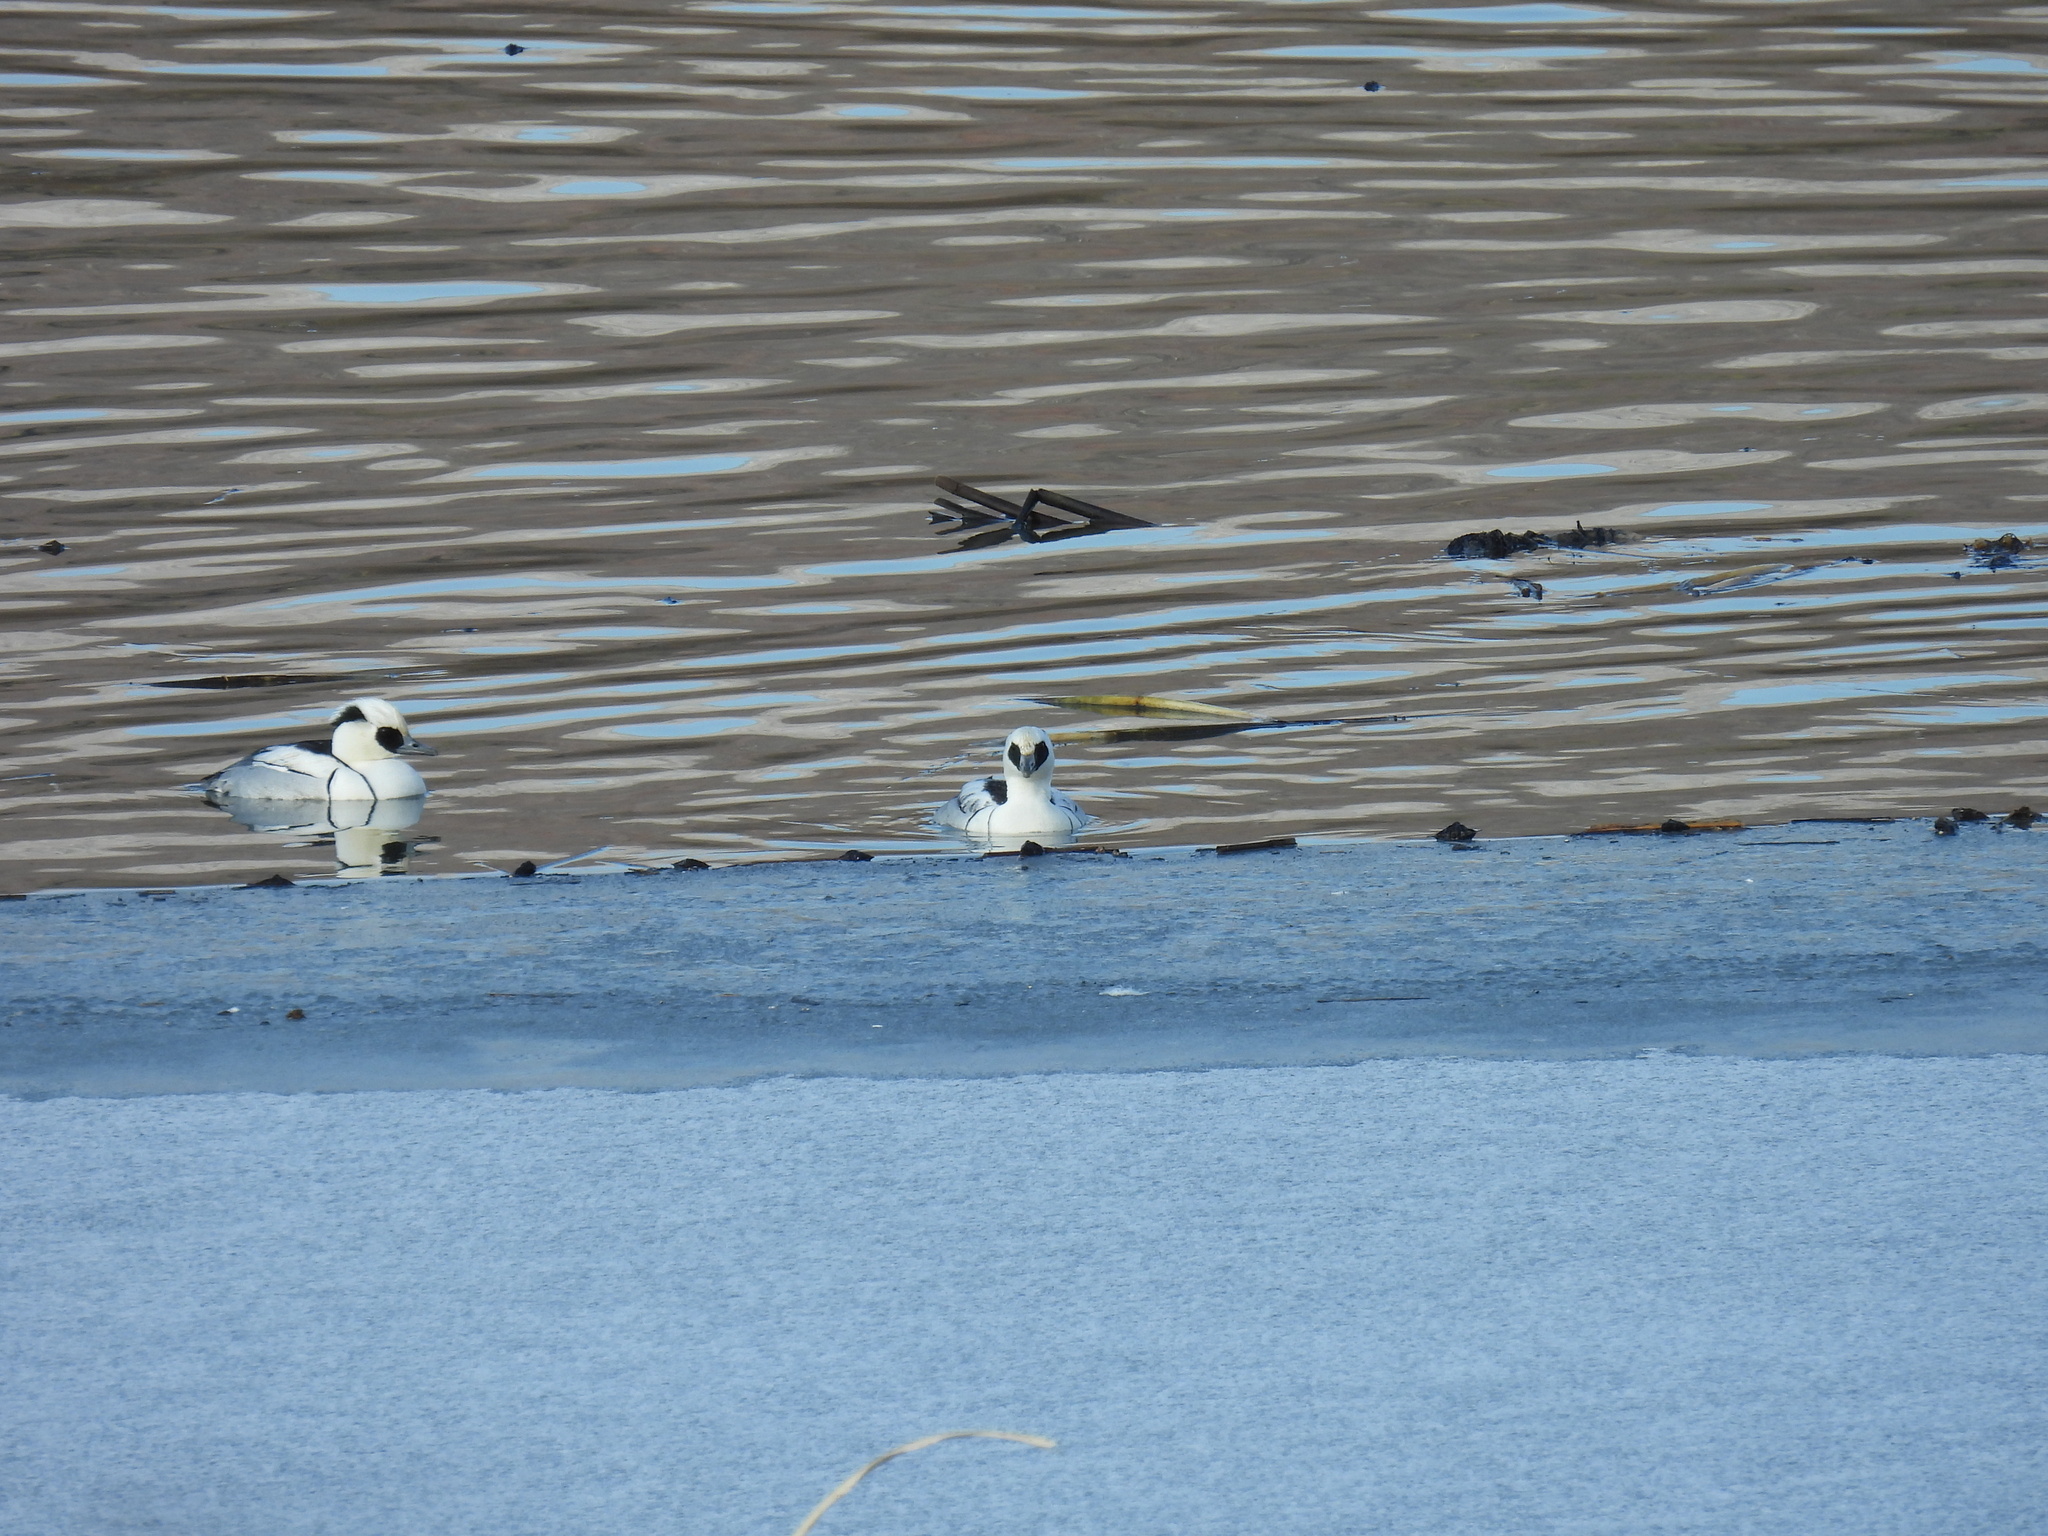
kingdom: Animalia
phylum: Chordata
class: Aves
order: Anseriformes
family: Anatidae
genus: Mergellus
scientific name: Mergellus albellus
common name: Smew
